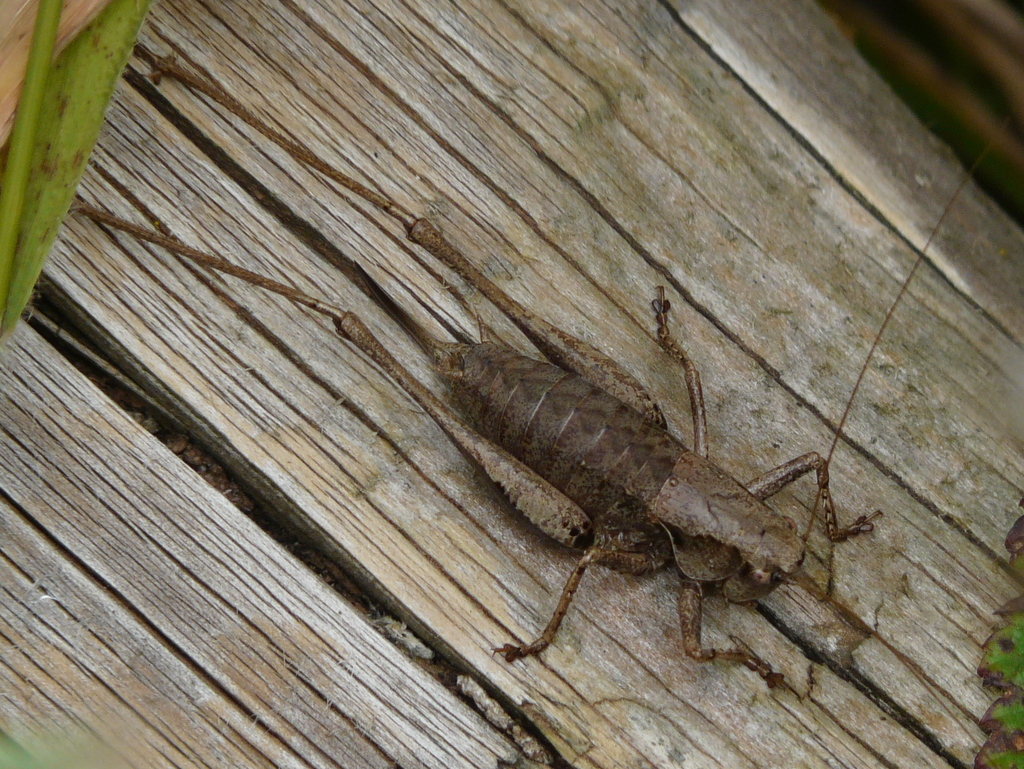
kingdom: Animalia
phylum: Arthropoda
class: Insecta
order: Orthoptera
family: Tettigoniidae
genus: Pholidoptera
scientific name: Pholidoptera griseoaptera
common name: Dark bush-cricket
